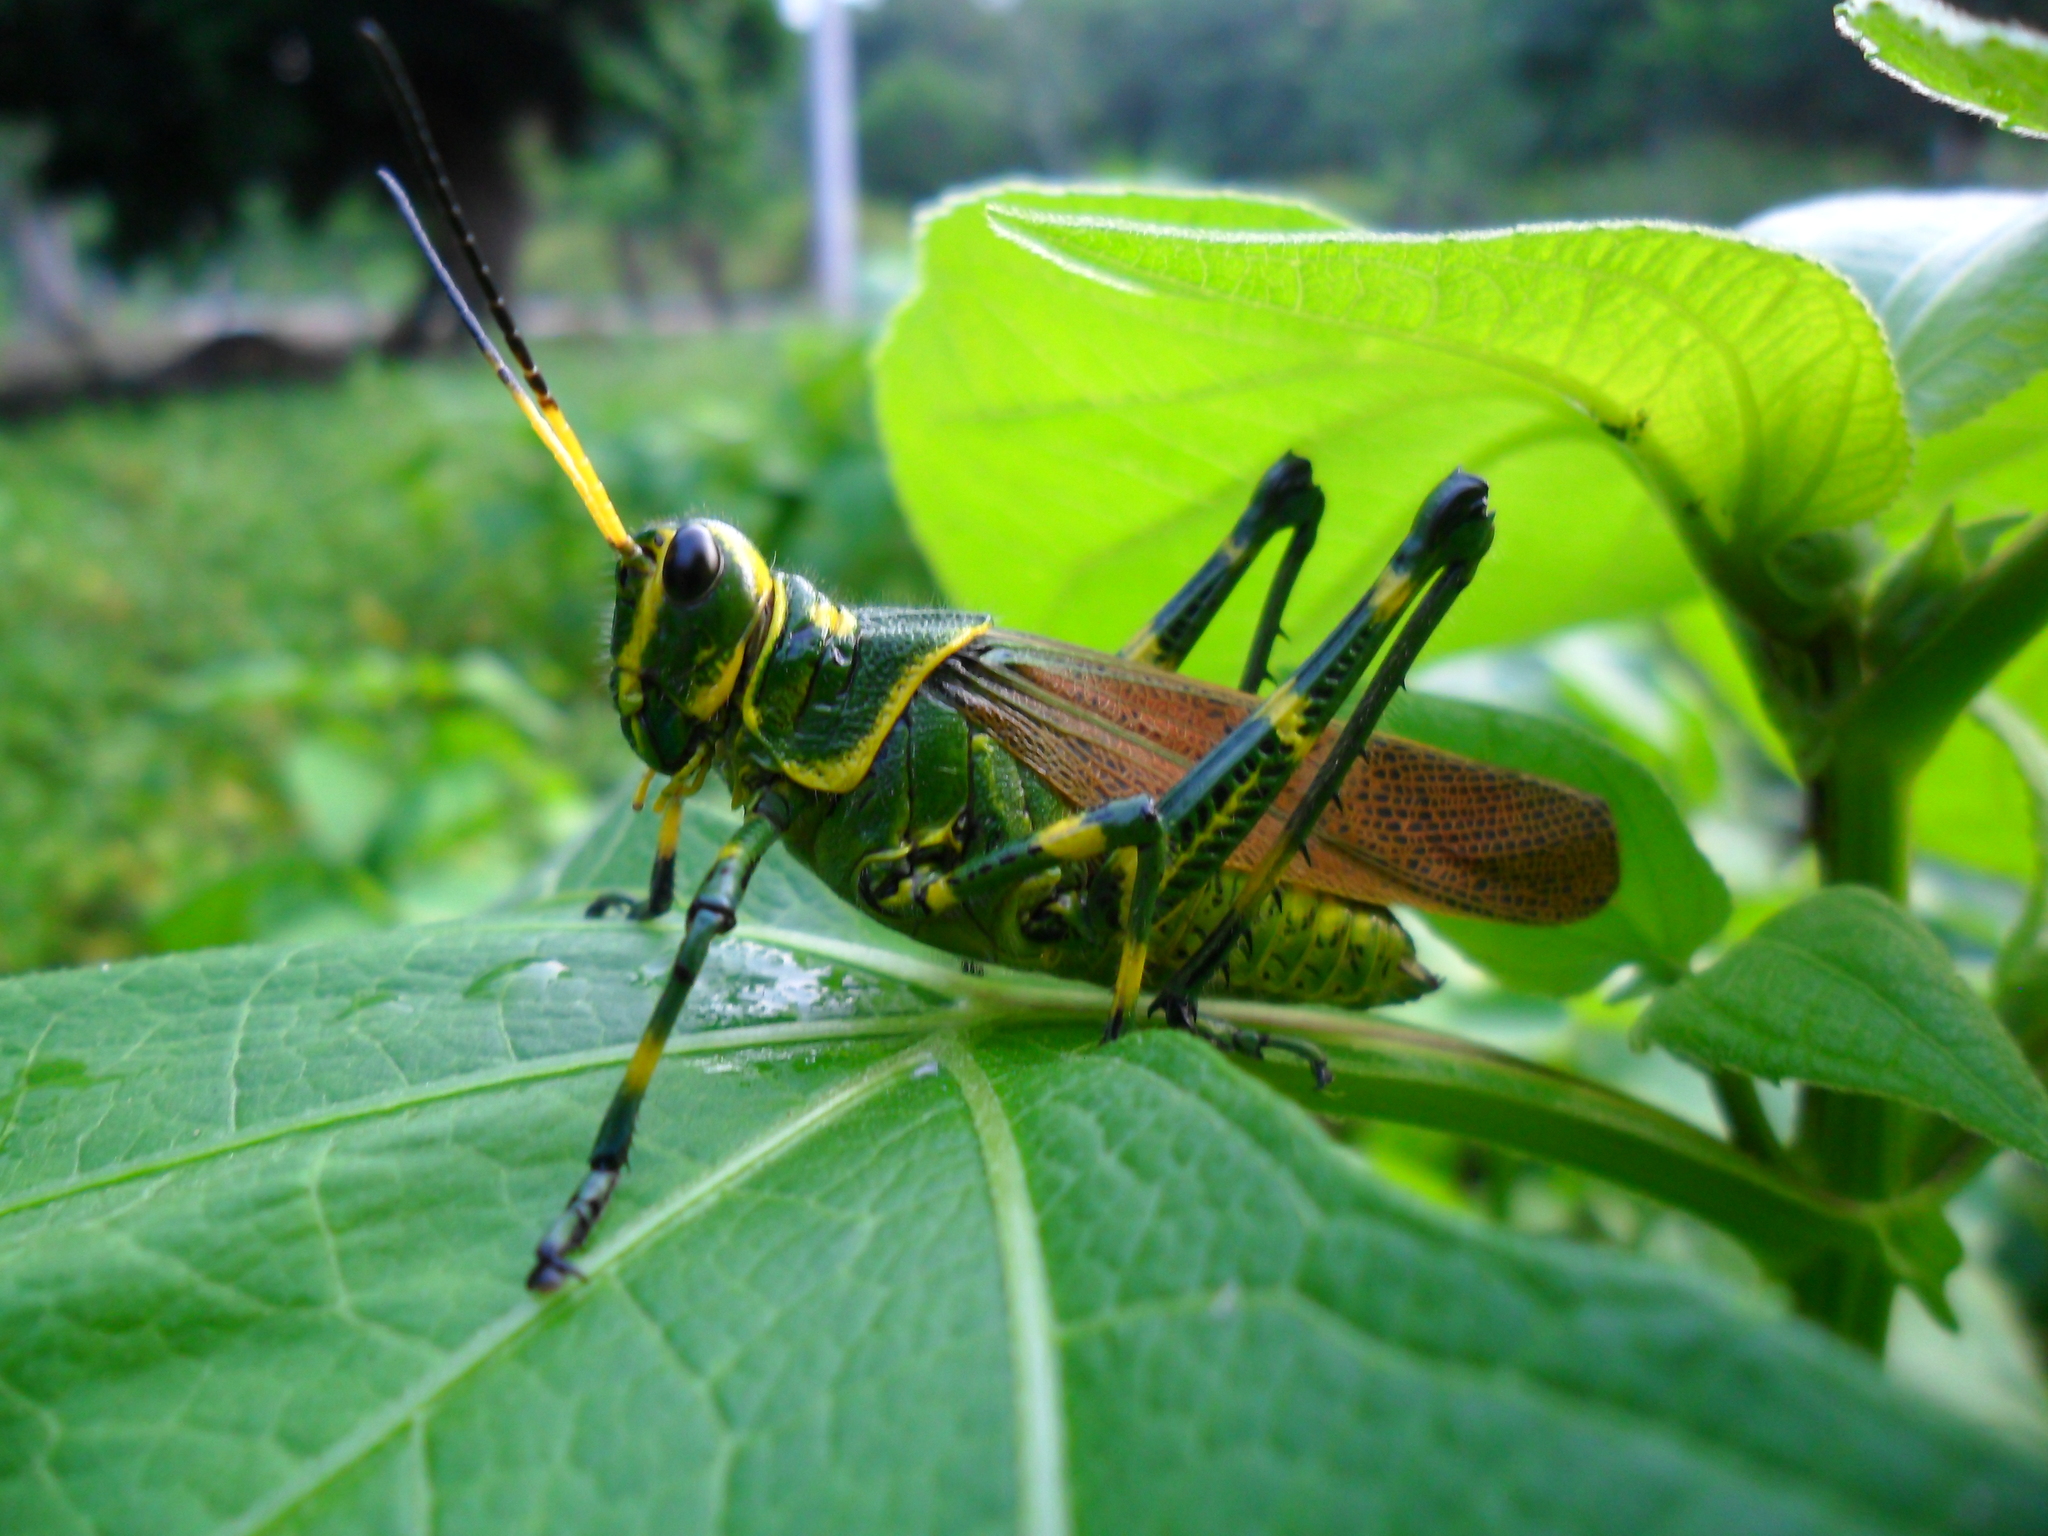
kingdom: Animalia
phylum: Arthropoda
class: Insecta
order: Orthoptera
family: Romaleidae
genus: Chromacris
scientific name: Chromacris colorata
